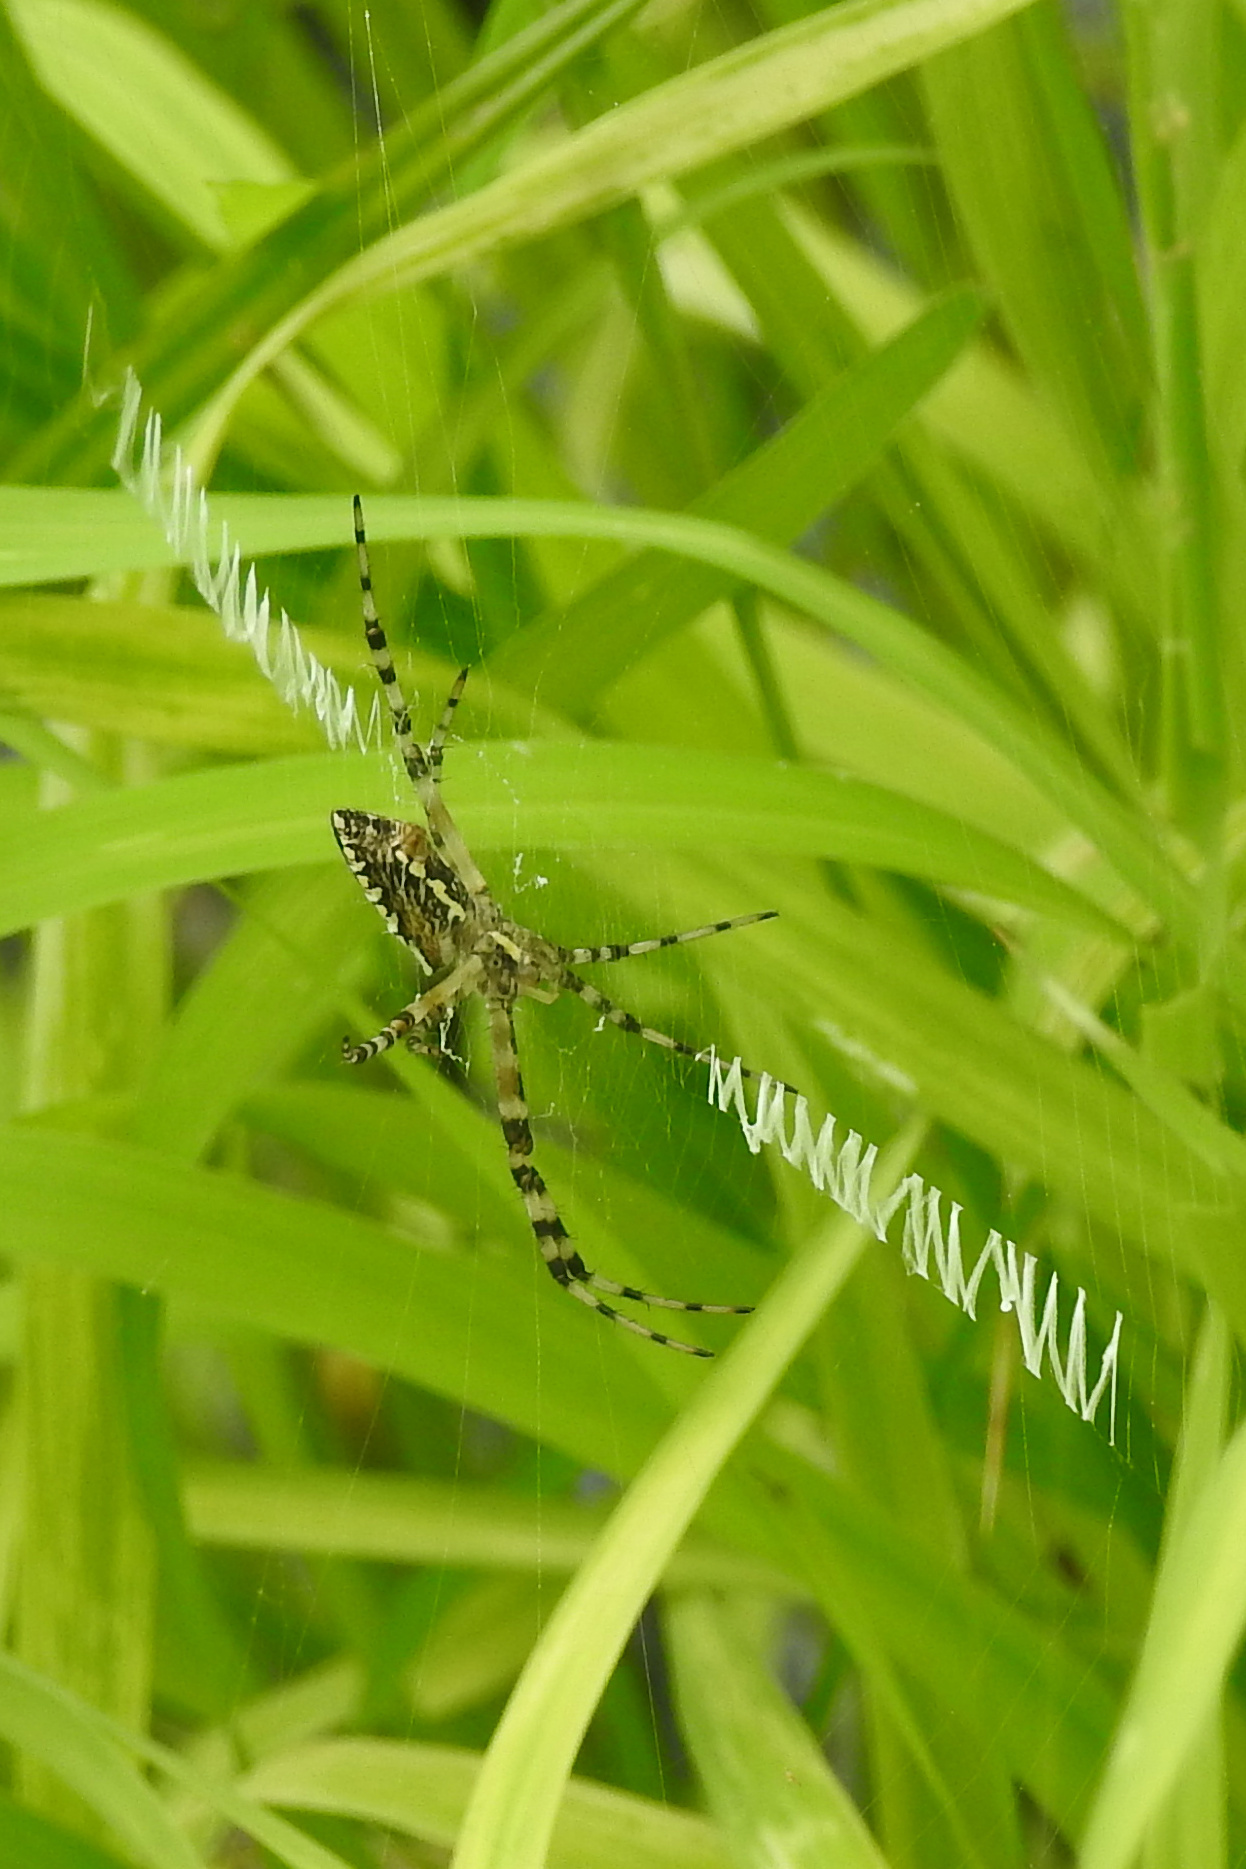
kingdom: Animalia
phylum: Arthropoda
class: Arachnida
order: Araneae
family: Araneidae
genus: Argiope
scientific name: Argiope aurantia
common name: Orb weavers
